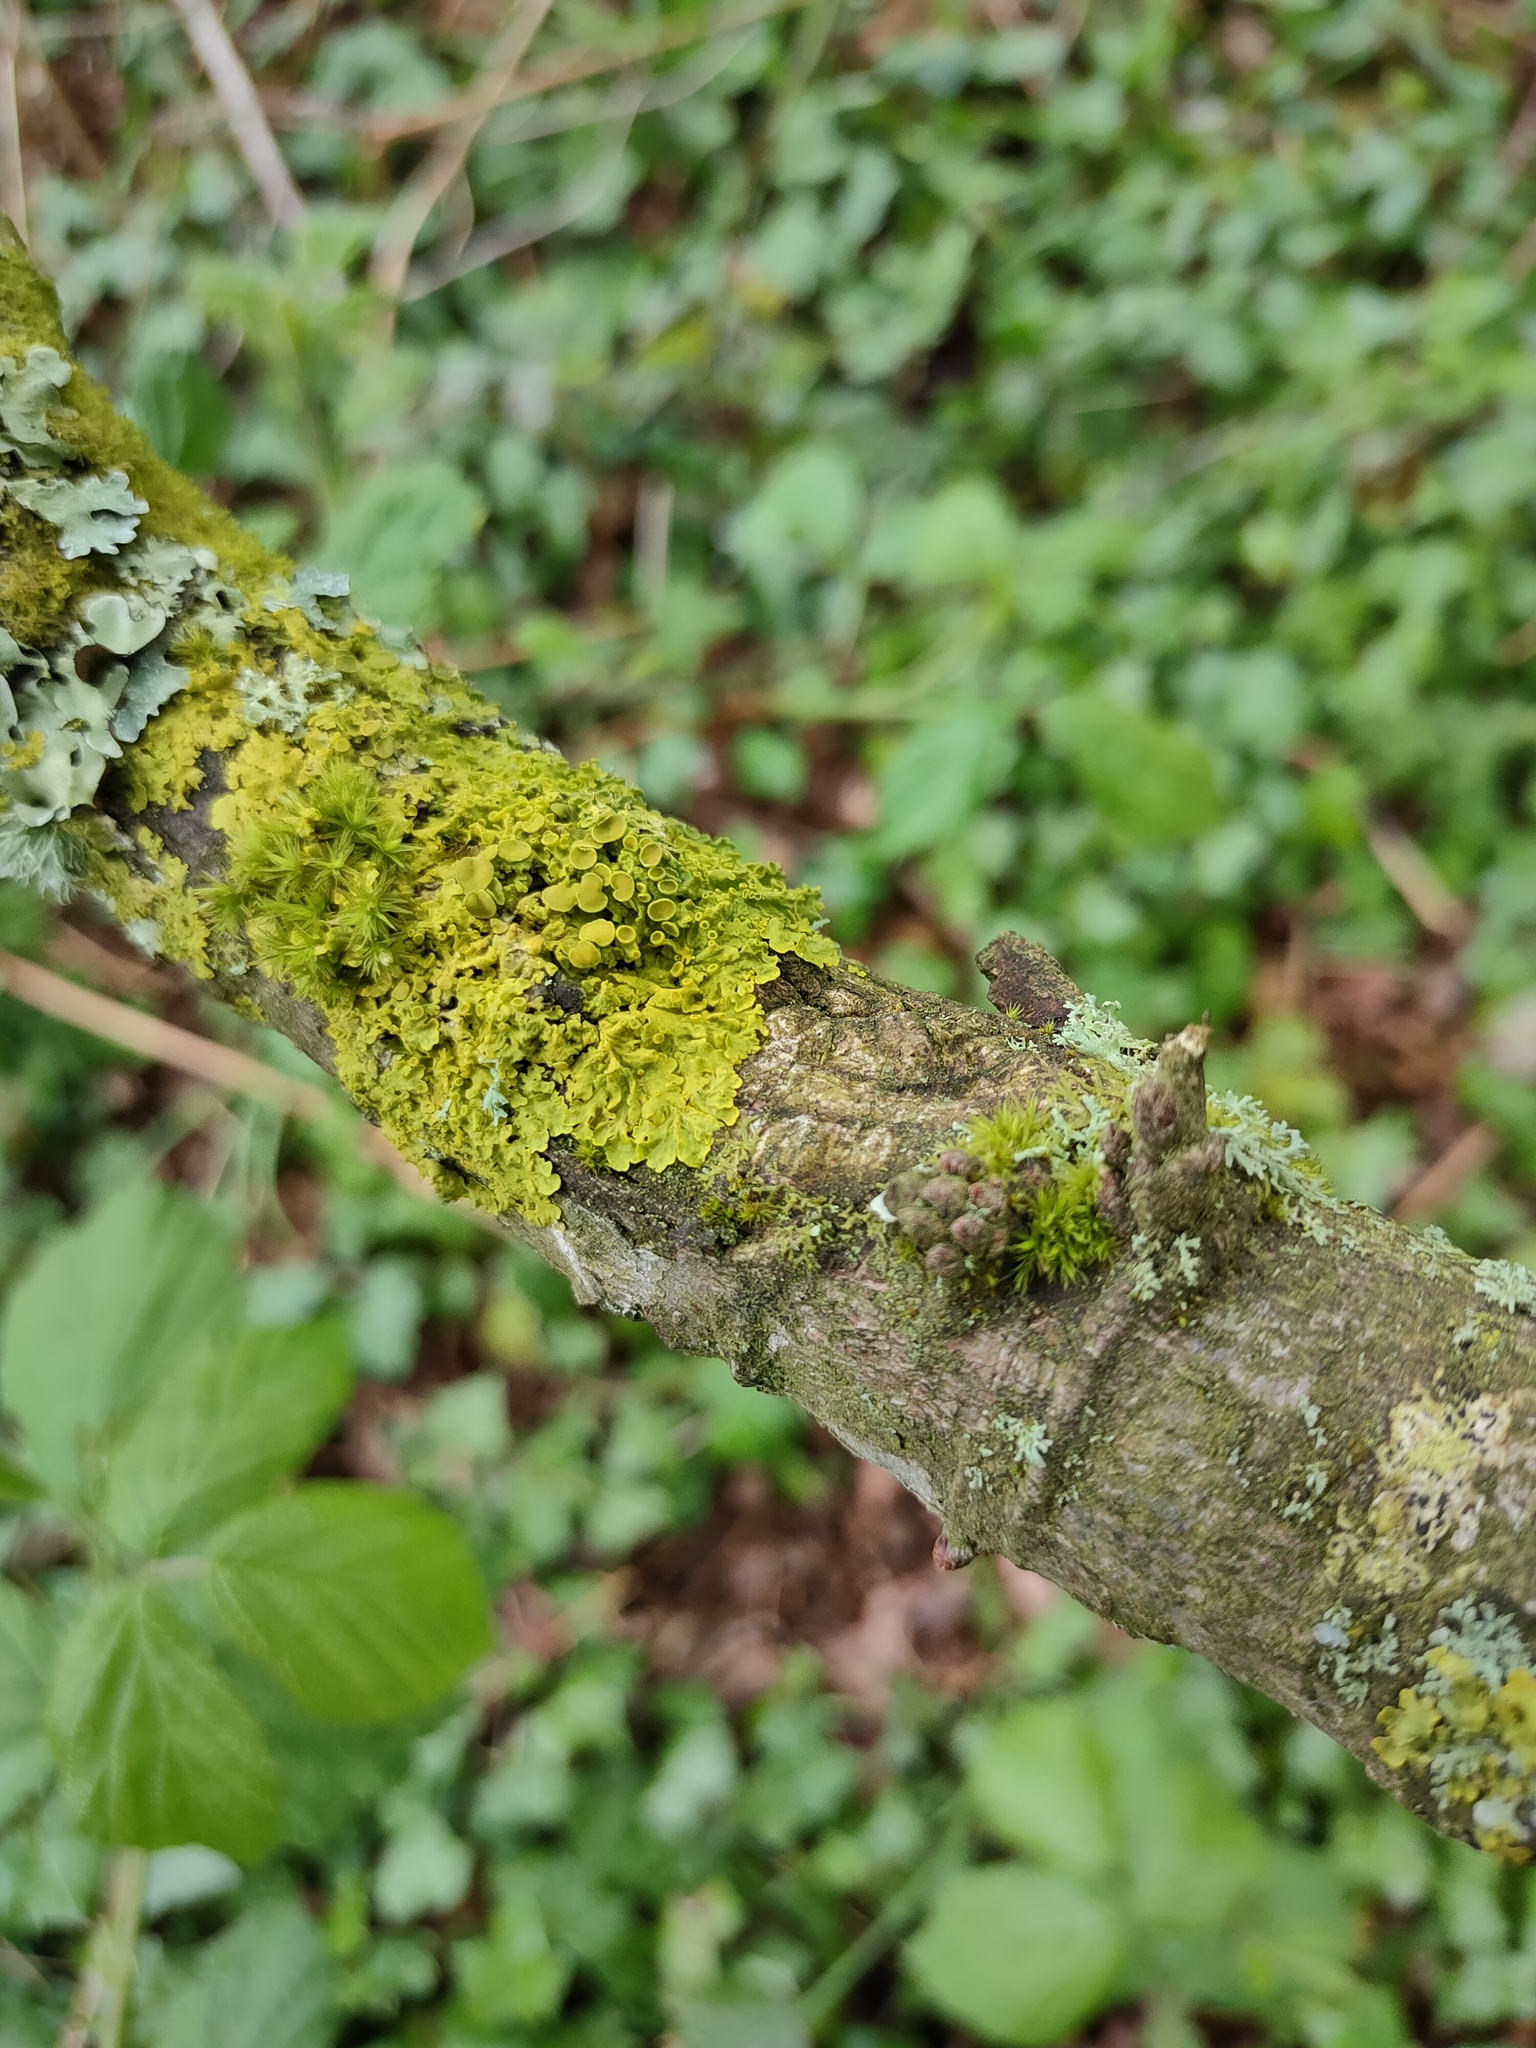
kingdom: Fungi
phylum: Ascomycota
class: Lecanoromycetes
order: Teloschistales
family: Teloschistaceae
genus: Xanthoria
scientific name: Xanthoria parietina
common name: Common orange lichen
